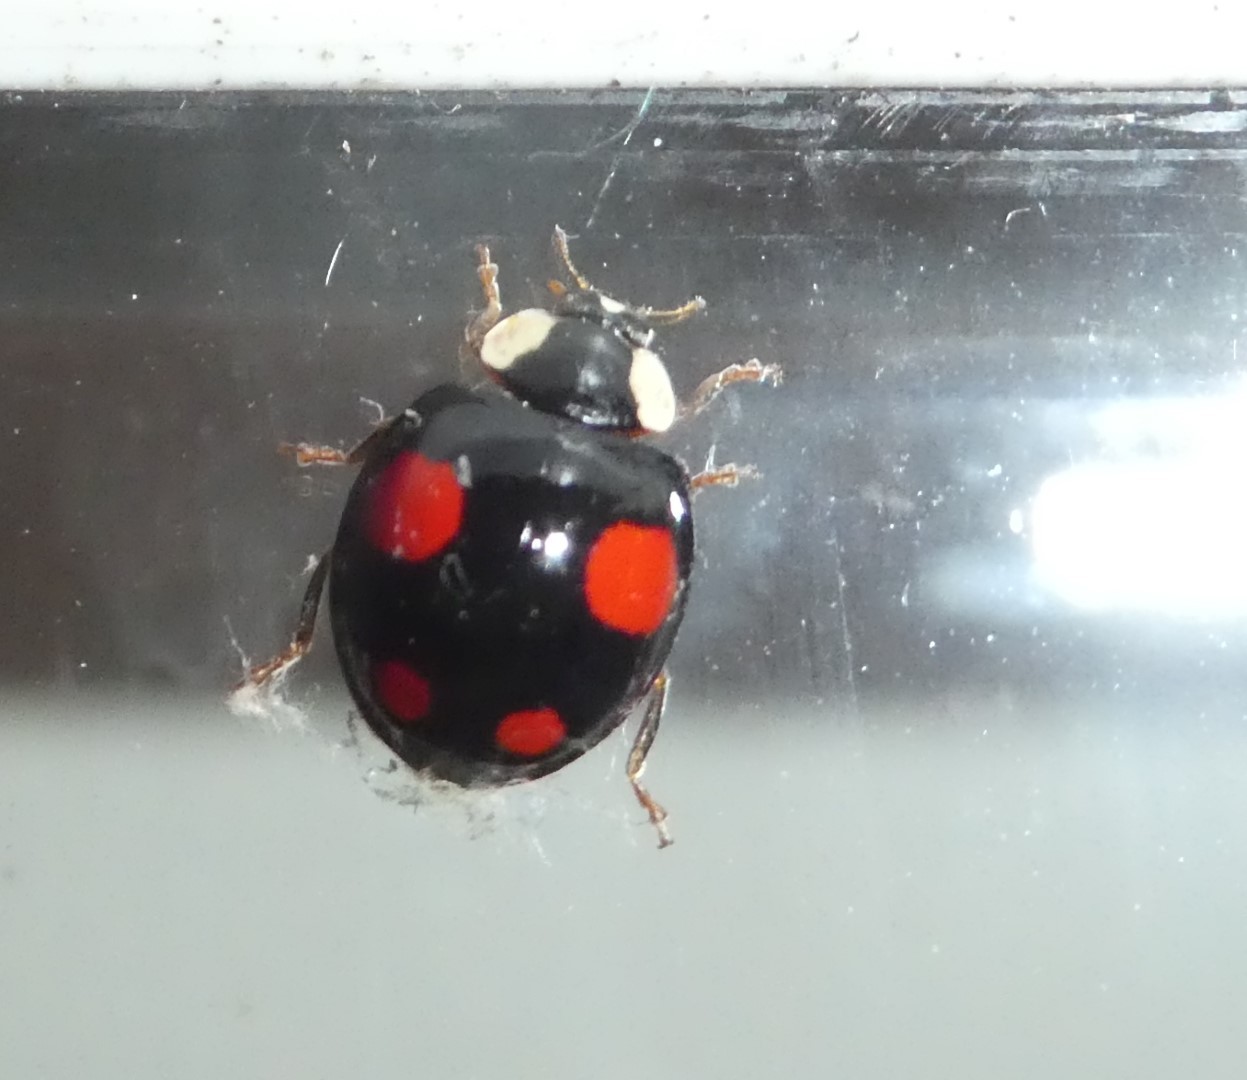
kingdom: Animalia
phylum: Arthropoda
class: Insecta
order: Coleoptera
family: Coccinellidae
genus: Harmonia
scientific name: Harmonia axyridis
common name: Harlequin ladybird
